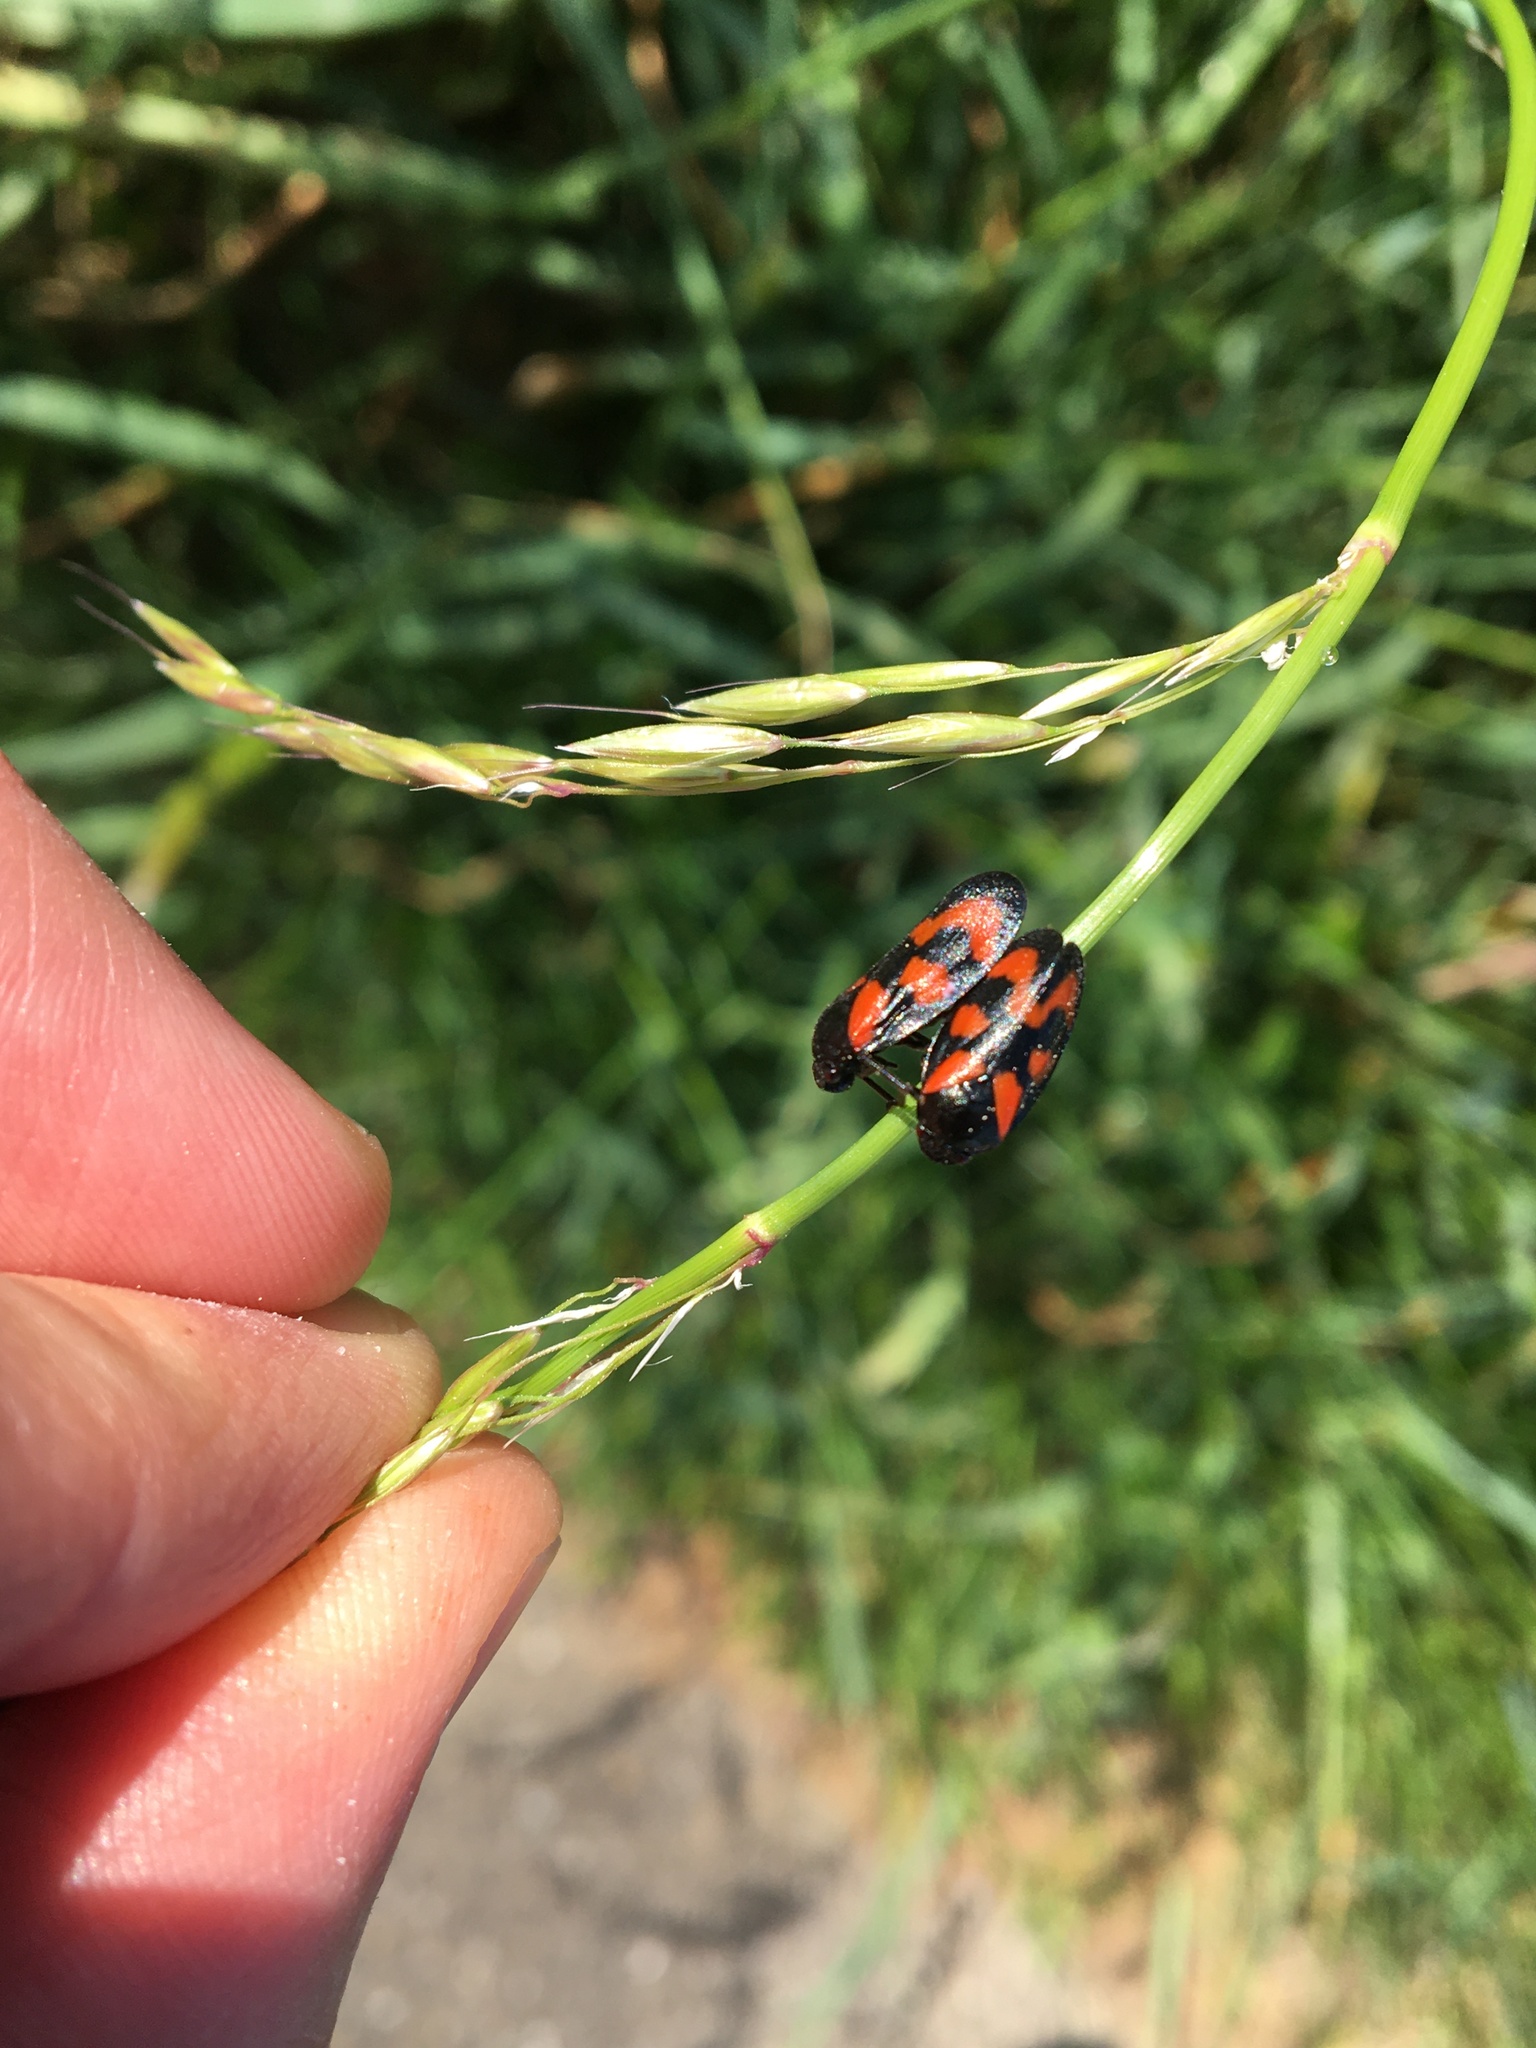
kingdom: Animalia
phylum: Arthropoda
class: Insecta
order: Hemiptera
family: Cercopidae
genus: Cercopis
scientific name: Cercopis vulnerata
